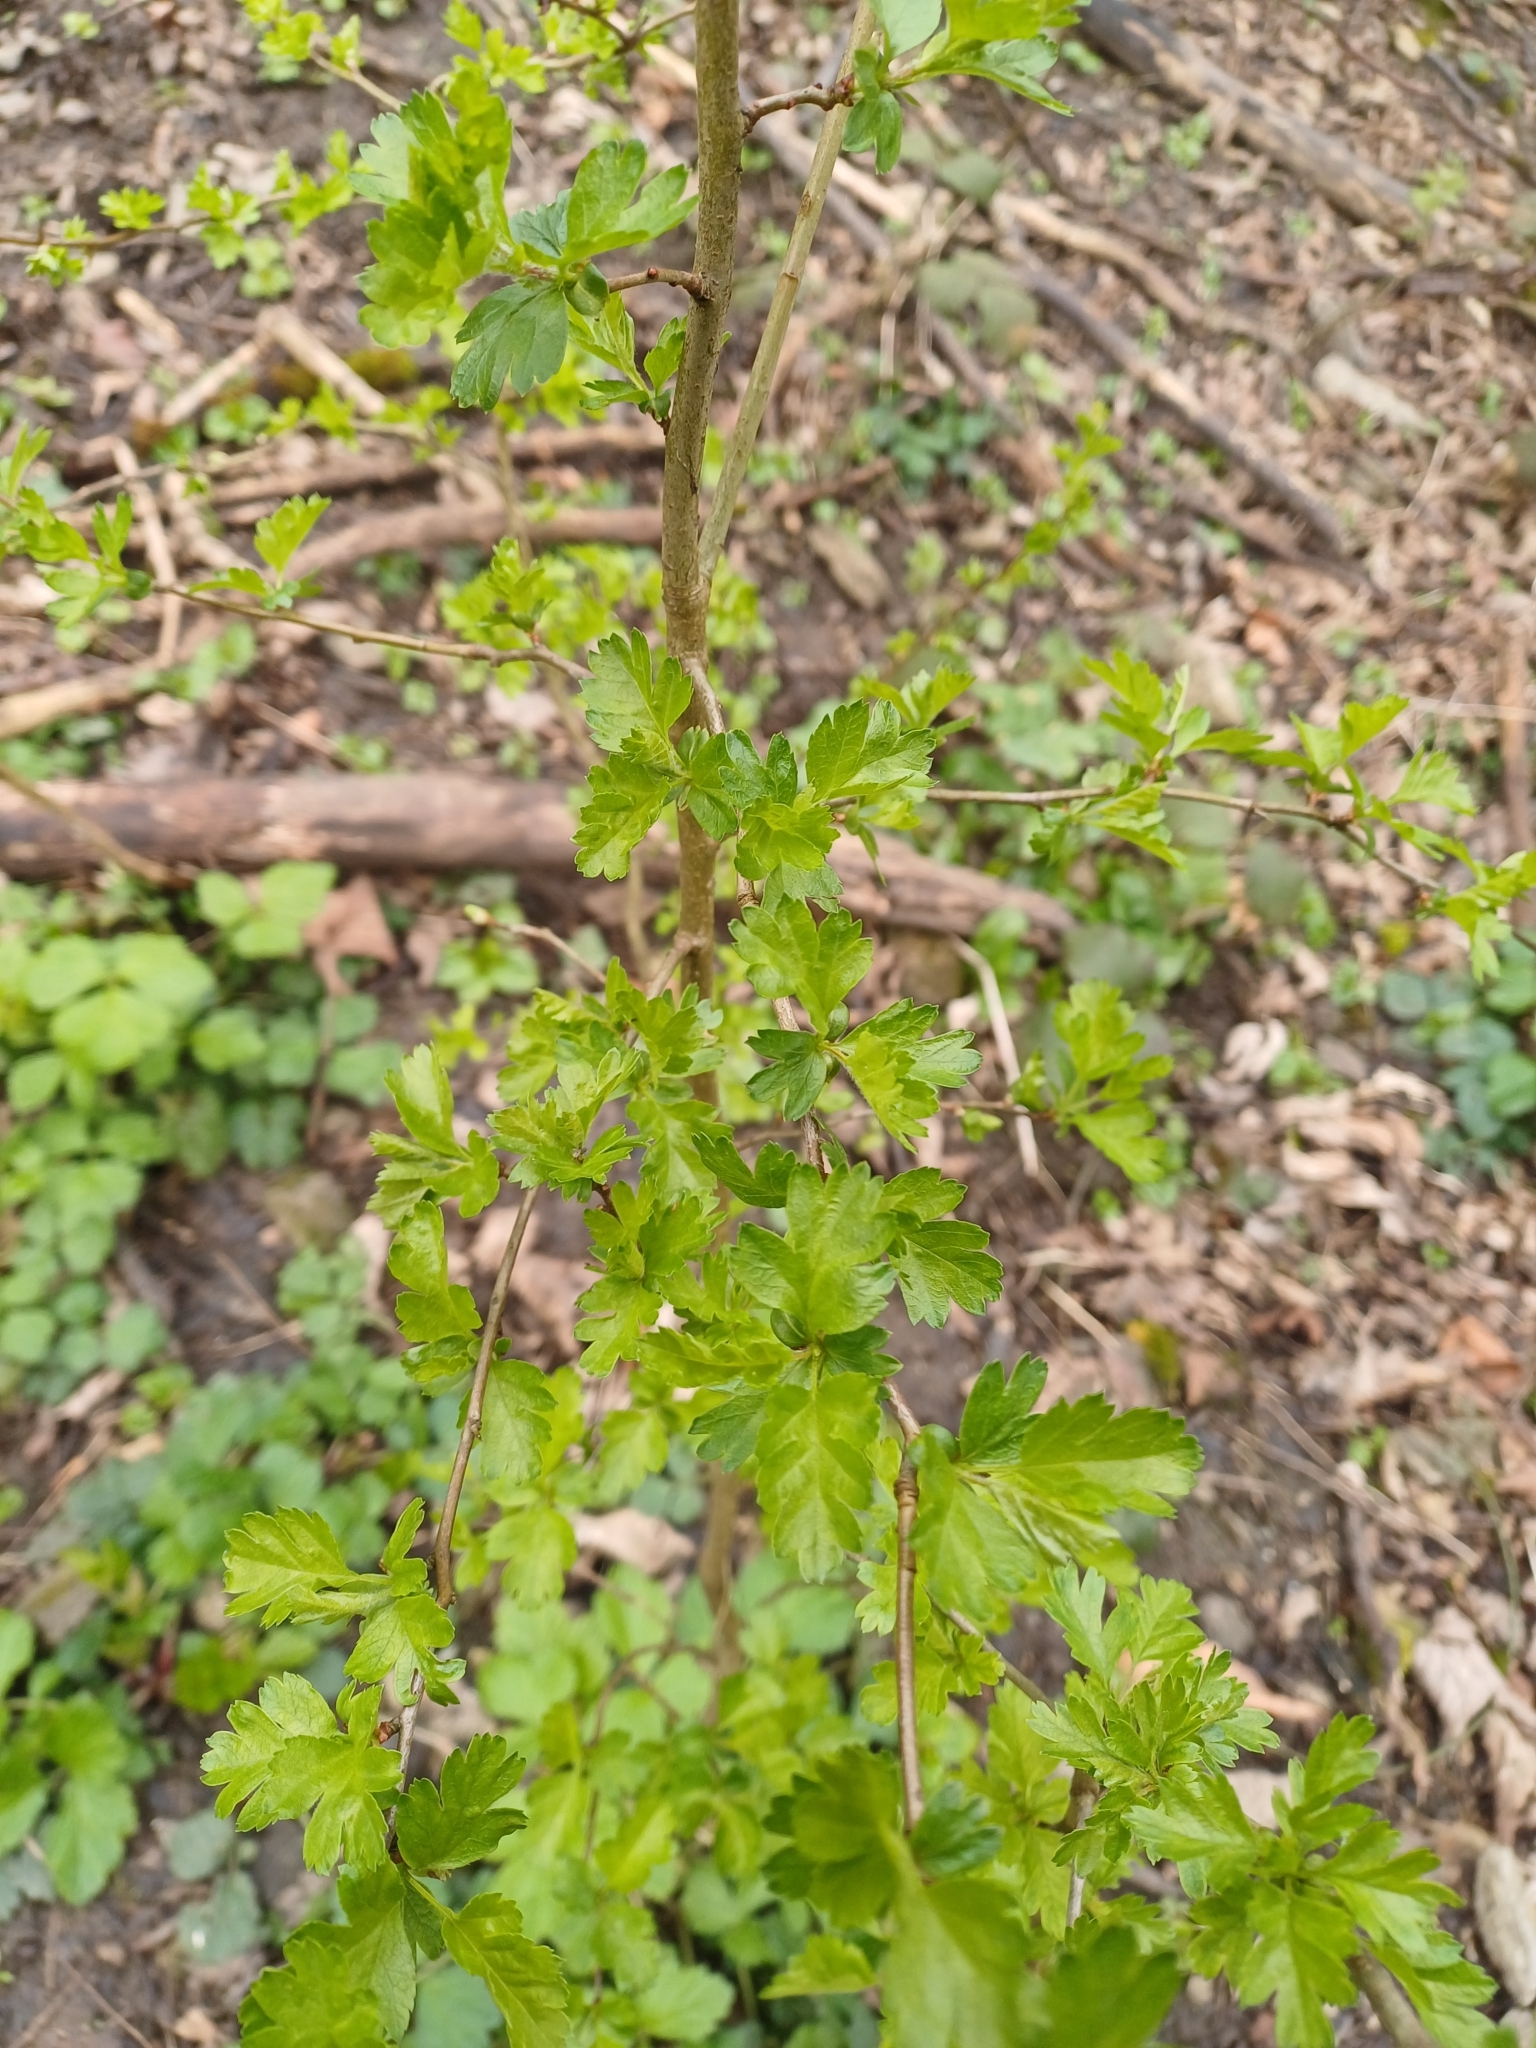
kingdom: Plantae
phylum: Tracheophyta
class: Magnoliopsida
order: Rosales
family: Rosaceae
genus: Crataegus
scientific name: Crataegus monogyna
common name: Hawthorn
